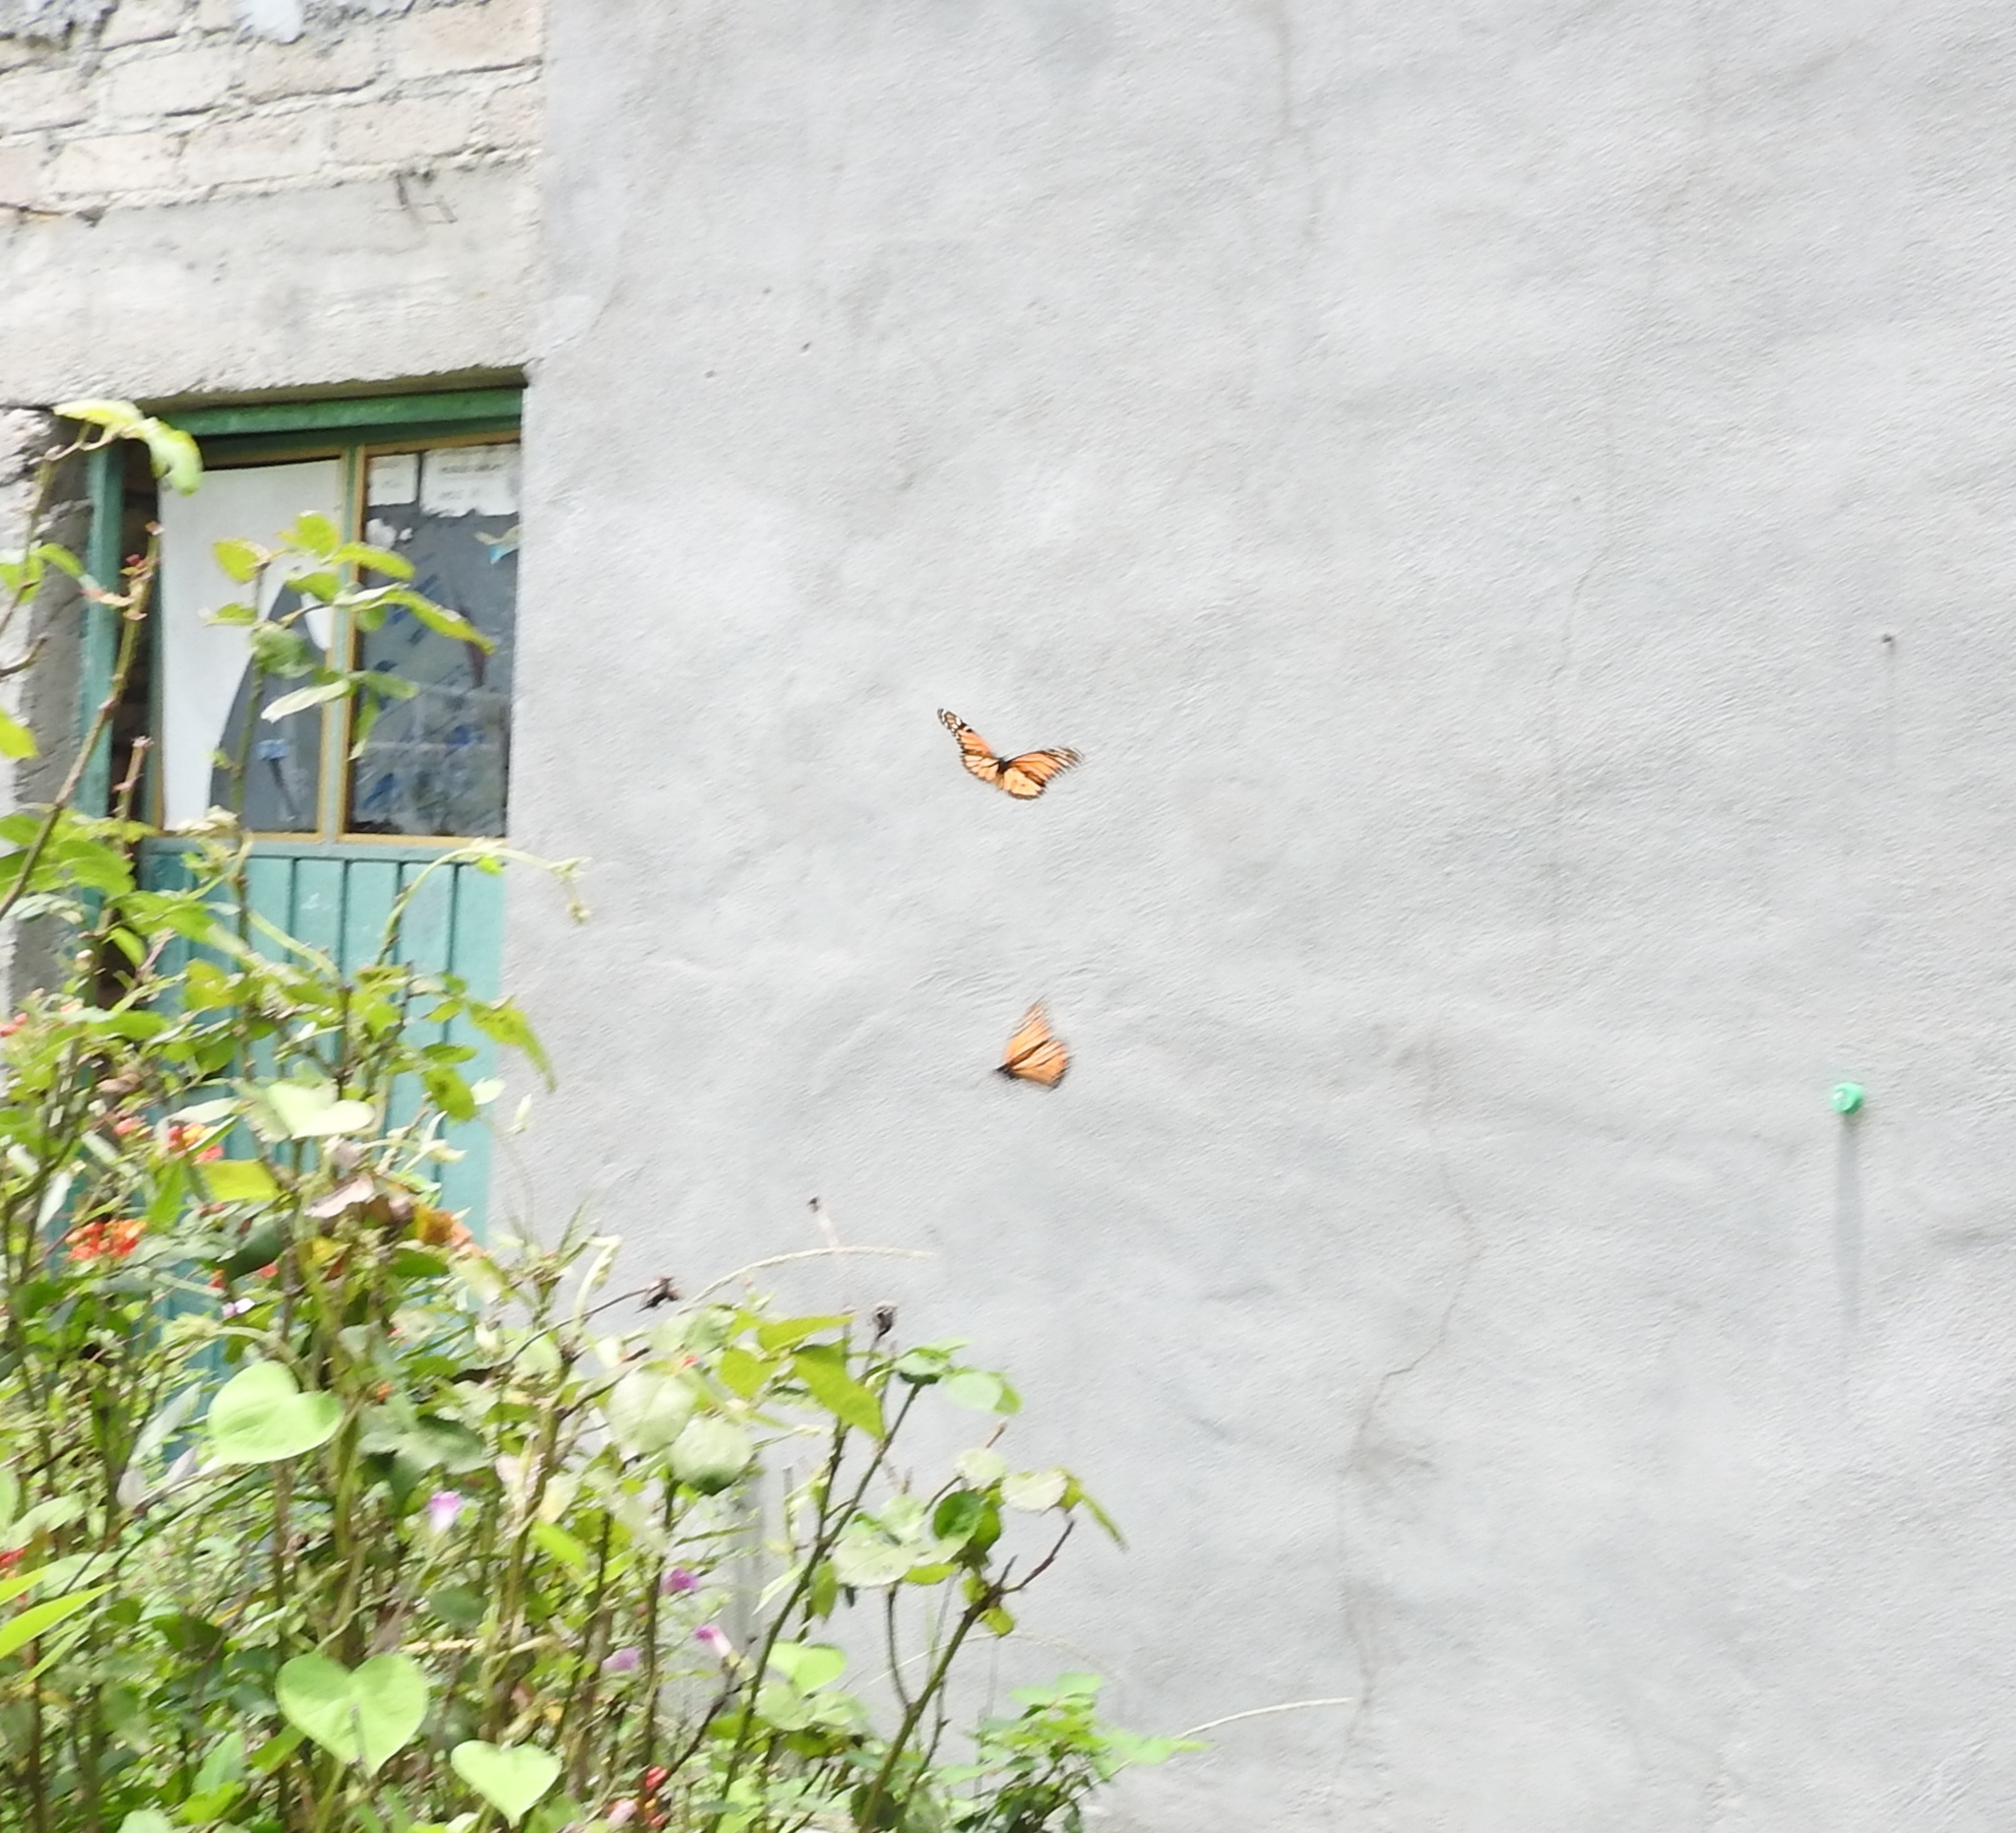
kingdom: Animalia
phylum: Arthropoda
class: Insecta
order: Lepidoptera
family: Nymphalidae
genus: Danaus
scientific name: Danaus plexippus
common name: Monarch
